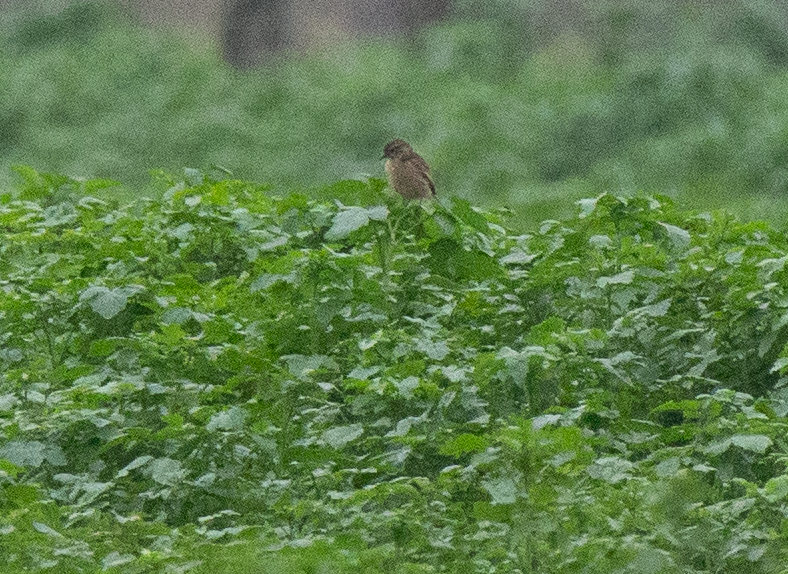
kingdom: Animalia
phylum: Chordata
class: Aves
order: Passeriformes
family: Muscicapidae
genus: Saxicola
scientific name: Saxicola rubicola
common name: European stonechat
